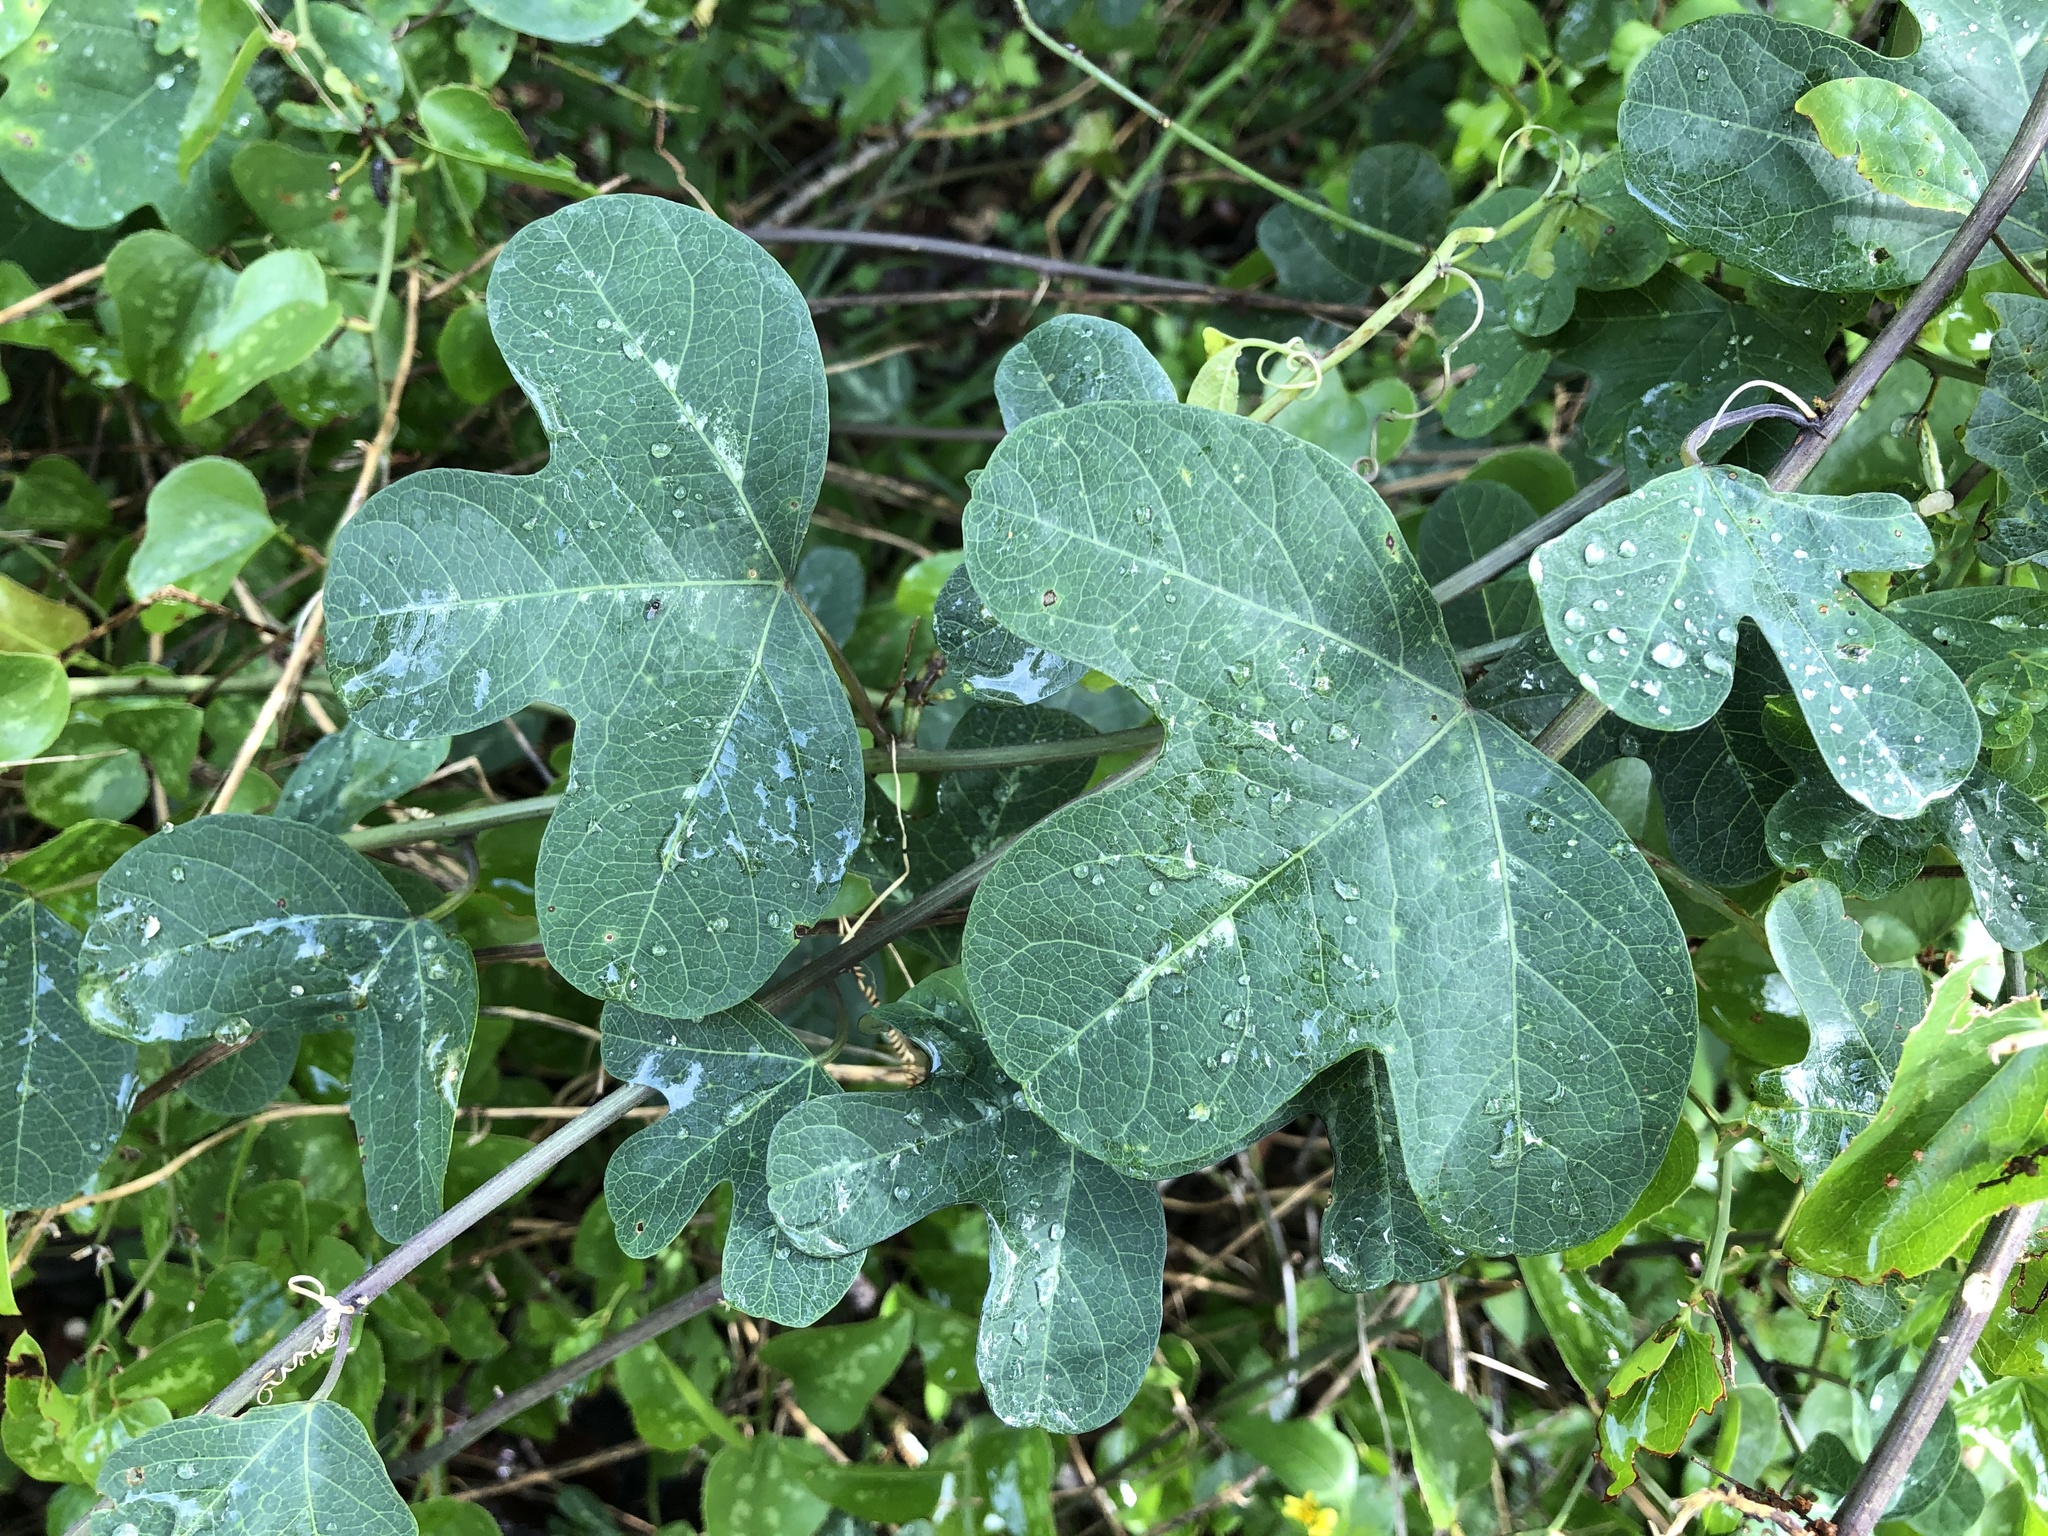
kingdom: Plantae
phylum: Tracheophyta
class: Magnoliopsida
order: Malpighiales
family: Passifloraceae
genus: Passiflora
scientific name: Passiflora affinis
